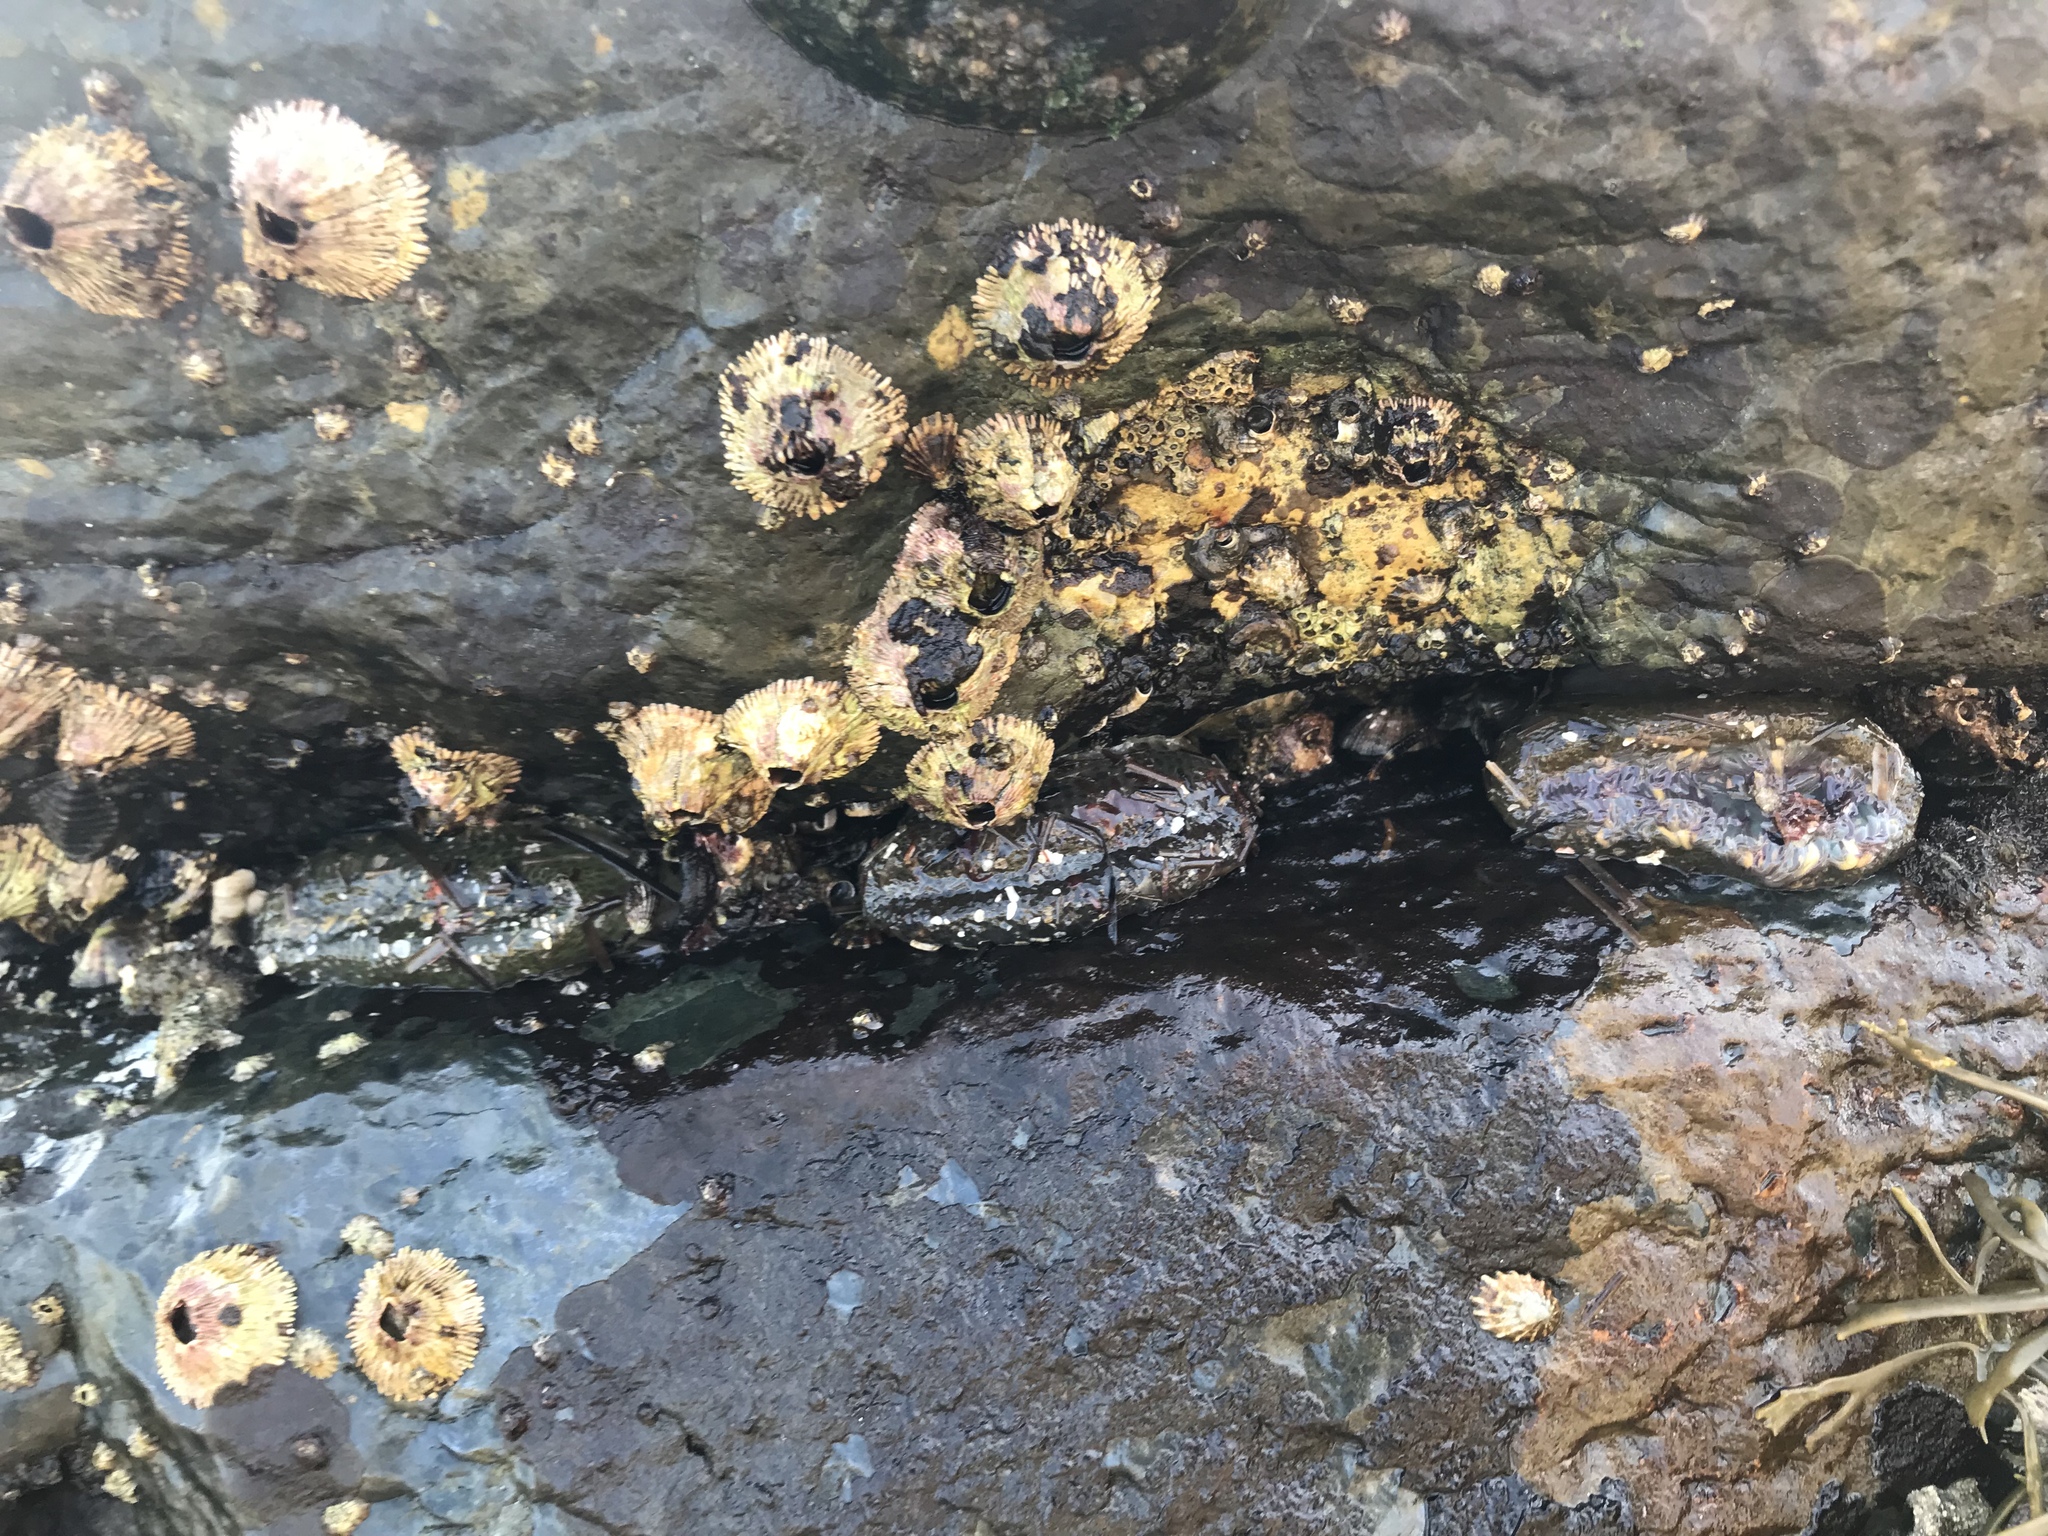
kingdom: Animalia
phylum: Arthropoda
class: Maxillopoda
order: Sessilia
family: Tetraclitidae
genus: Tetraclita
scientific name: Tetraclita rubescens
